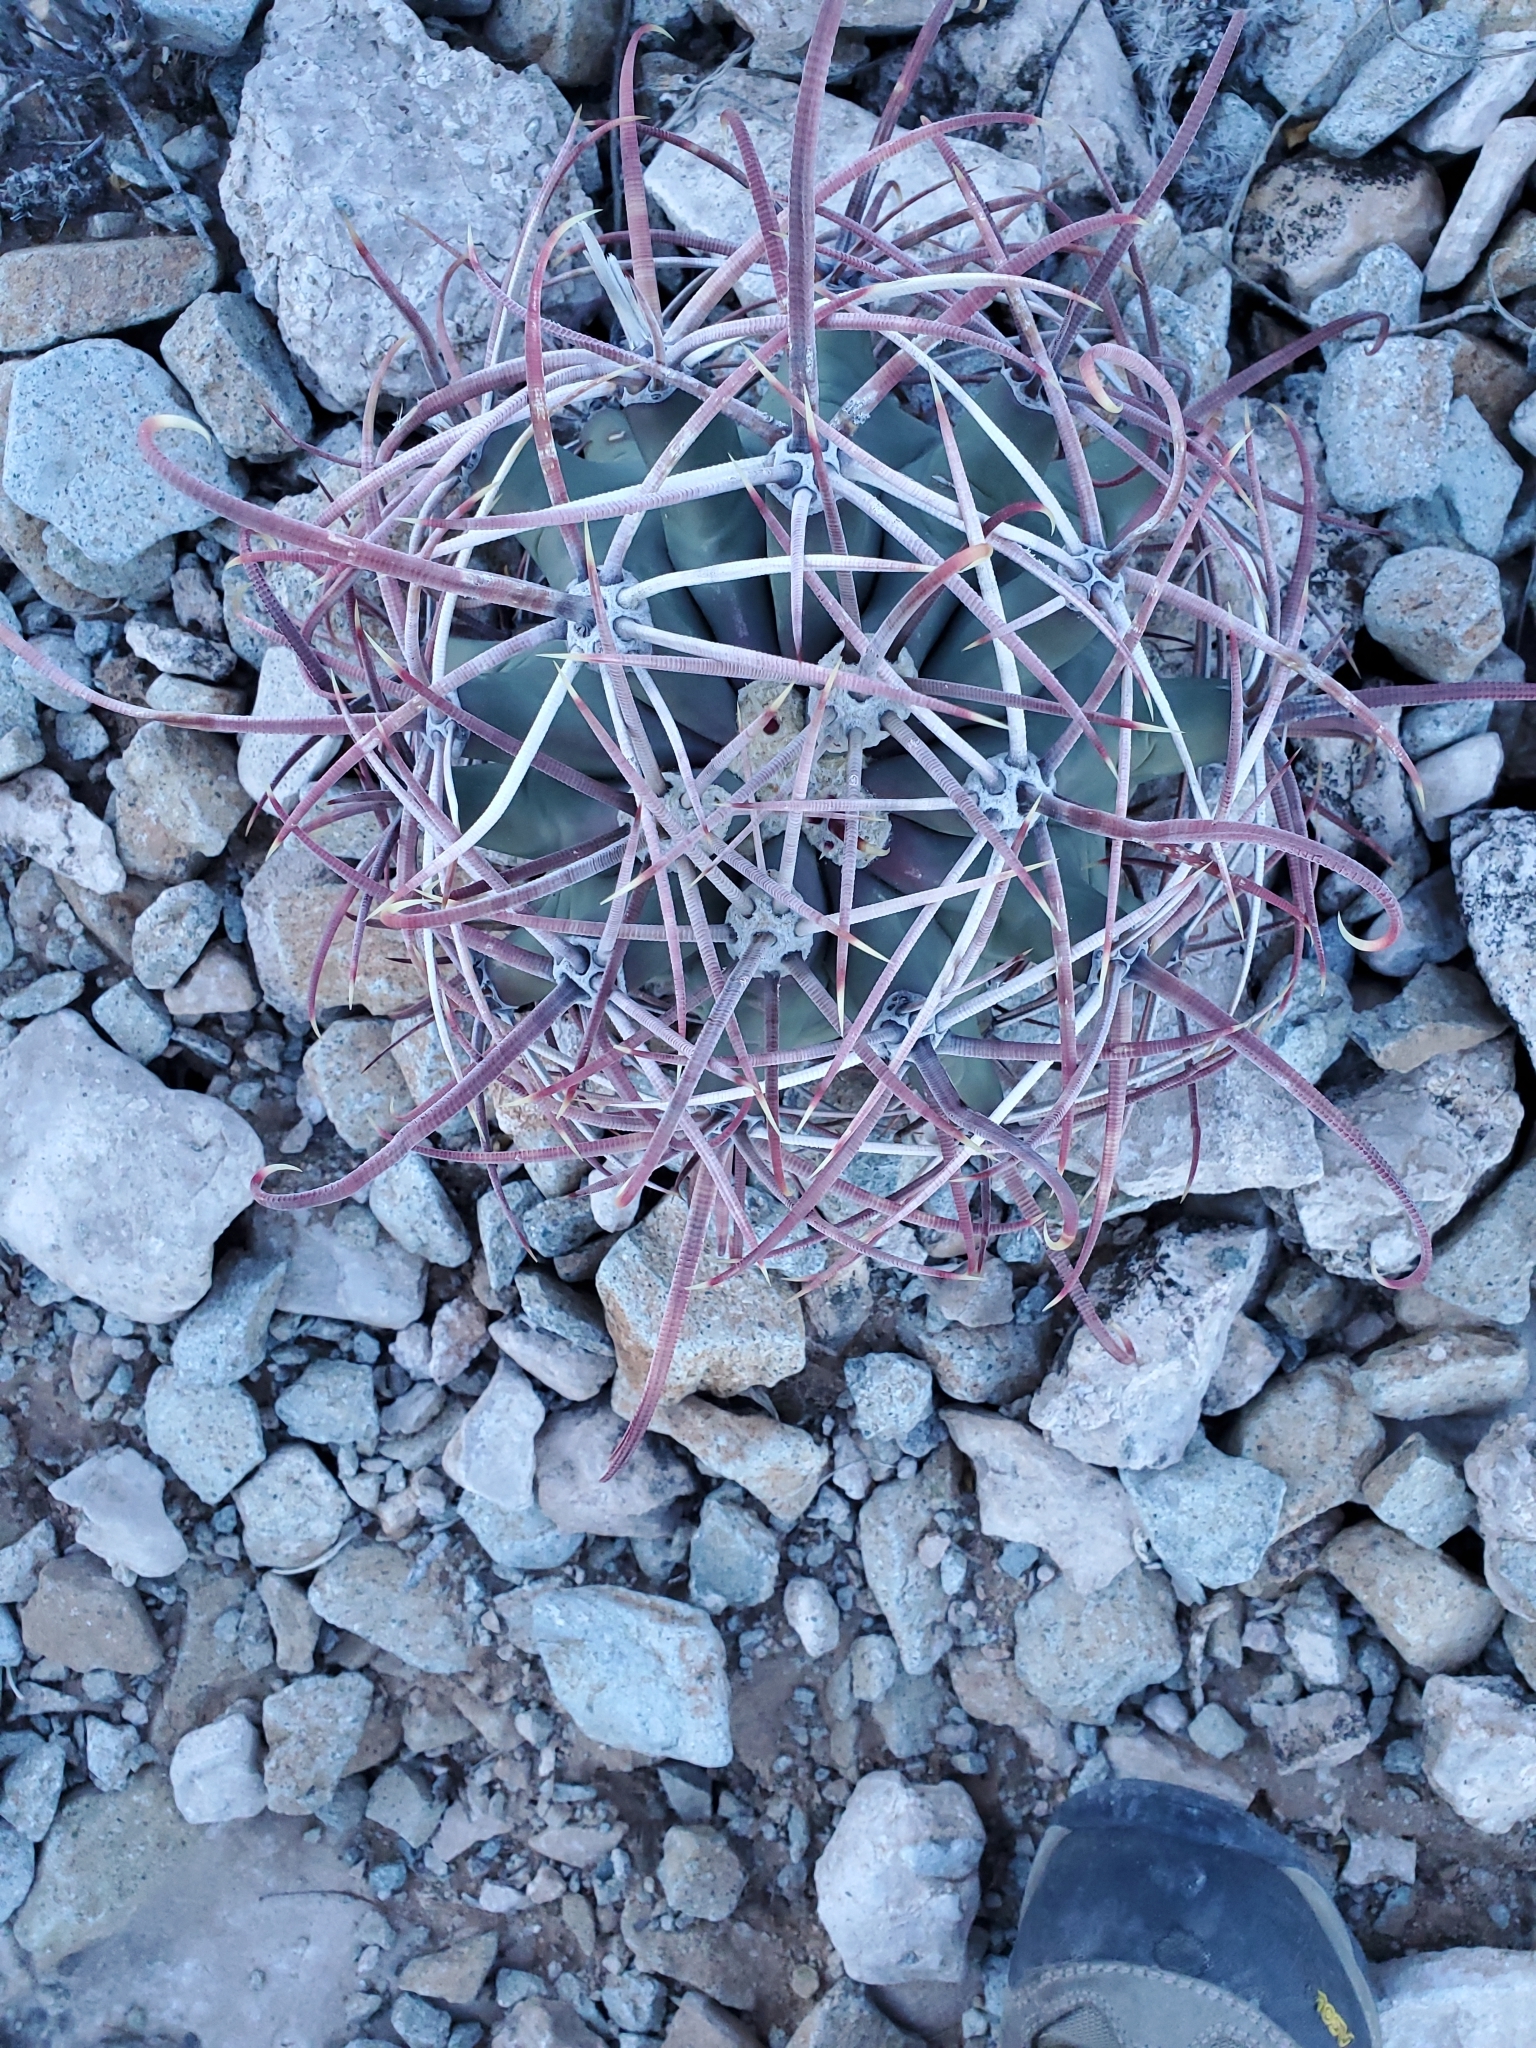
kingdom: Plantae
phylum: Tracheophyta
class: Magnoliopsida
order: Caryophyllales
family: Cactaceae
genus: Ferocactus
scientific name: Ferocactus emoryi
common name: Emory's barrel cactus
